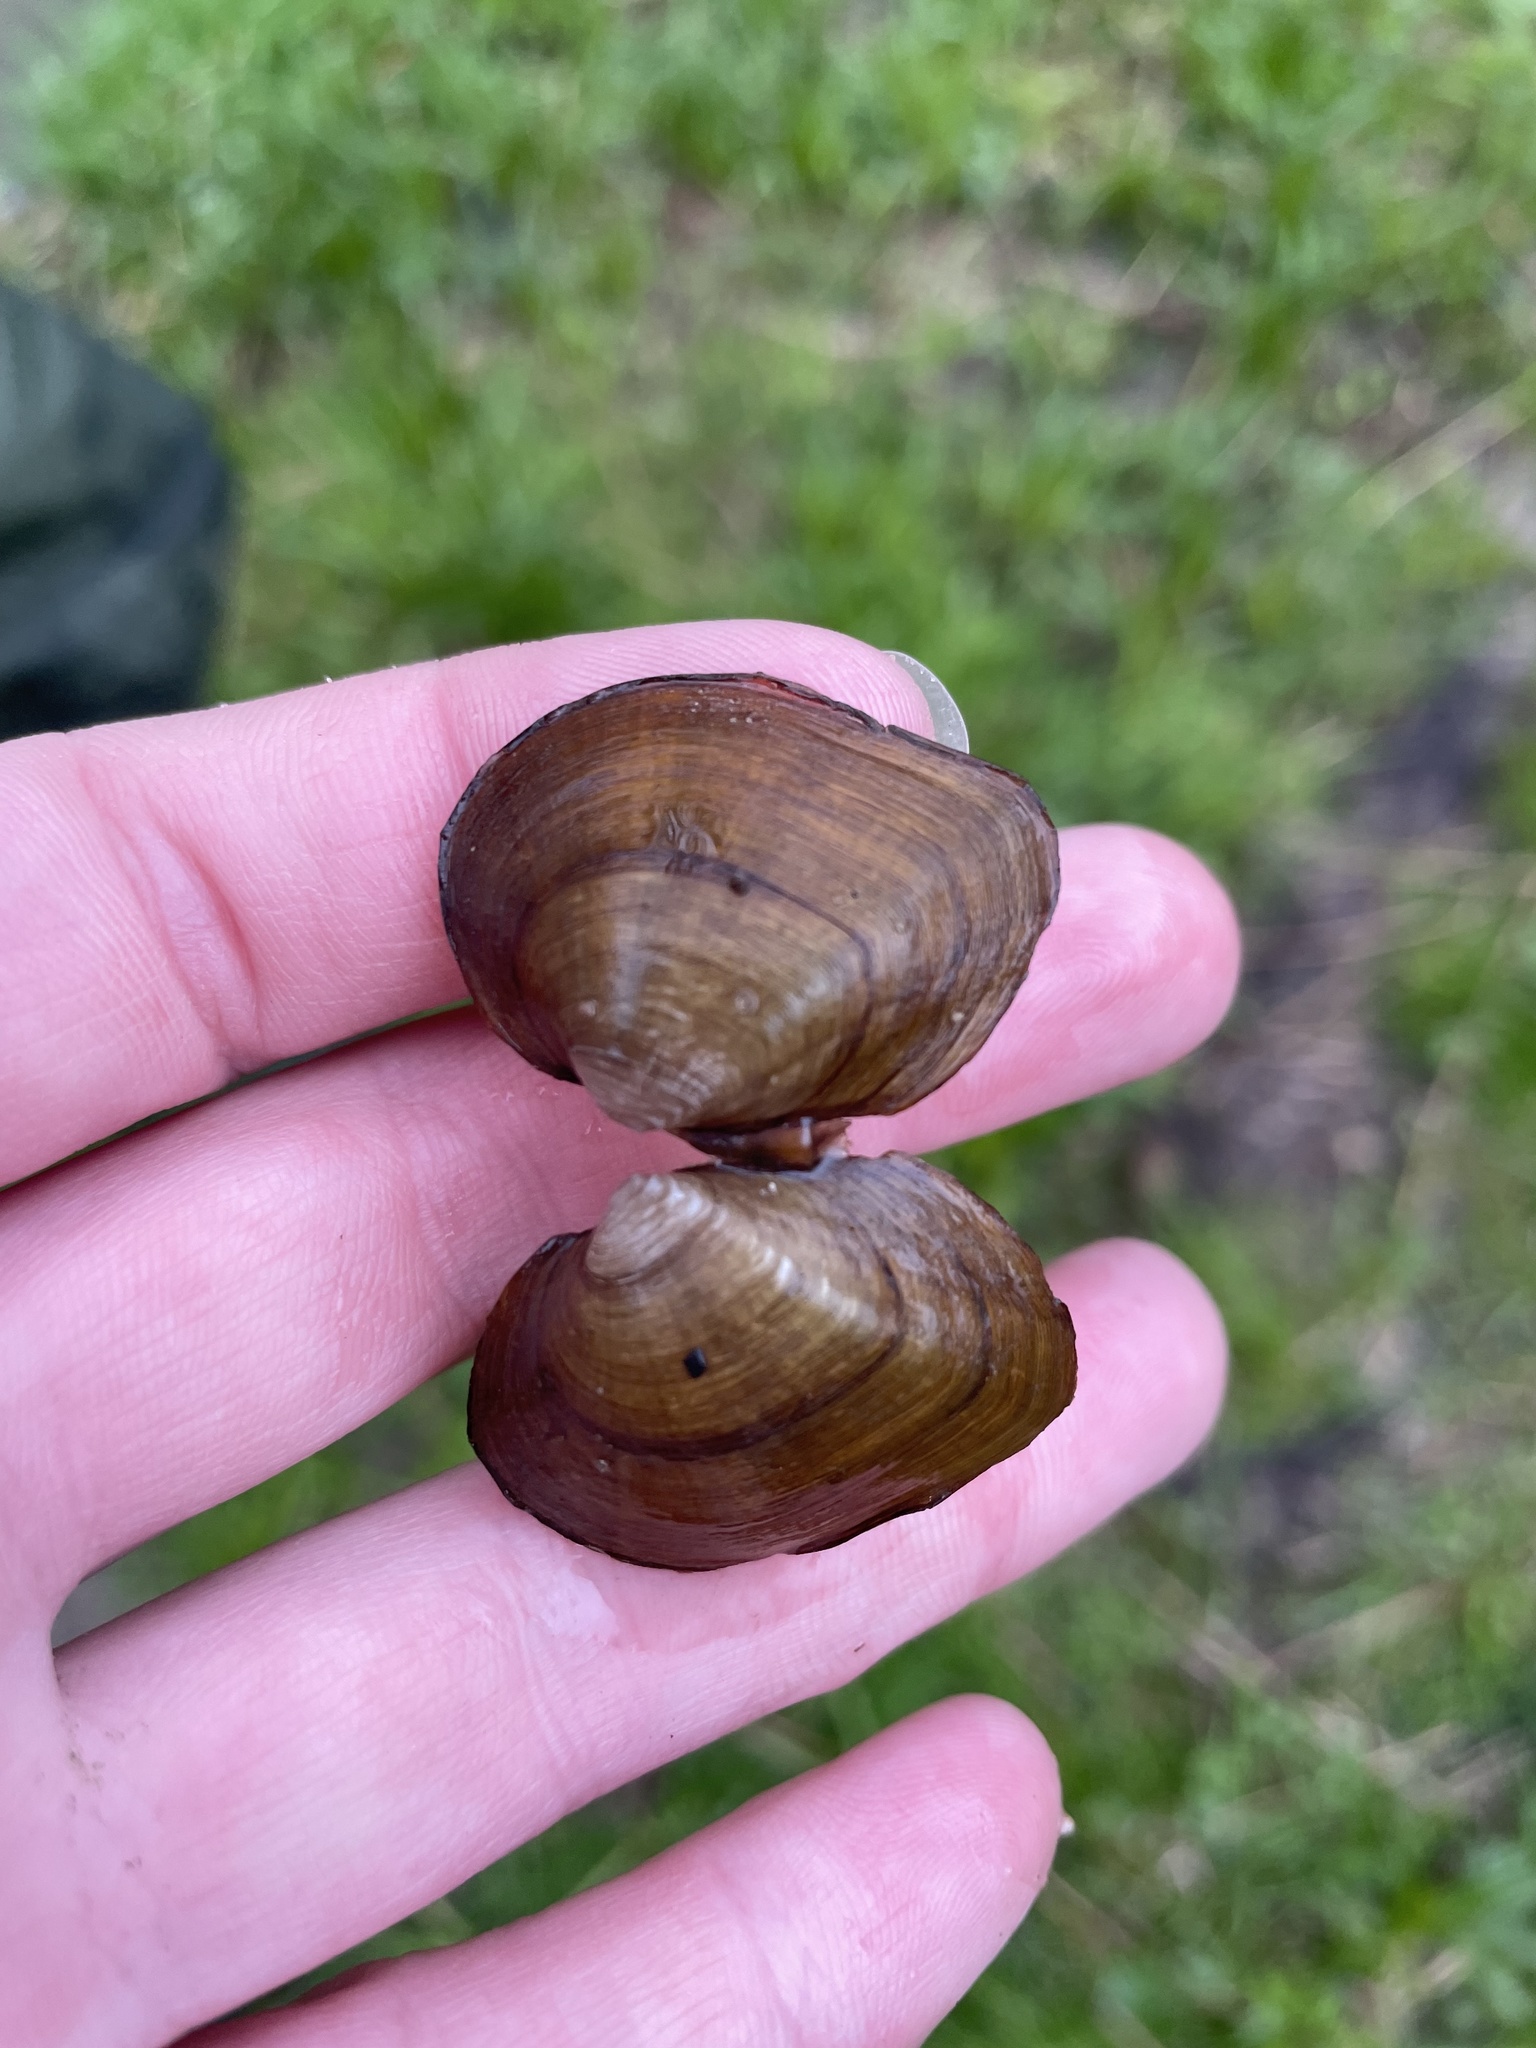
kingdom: Animalia
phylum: Mollusca
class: Bivalvia
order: Unionida
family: Unionidae
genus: Fusconaia
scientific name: Fusconaia flava
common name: Wabash pigtoe
